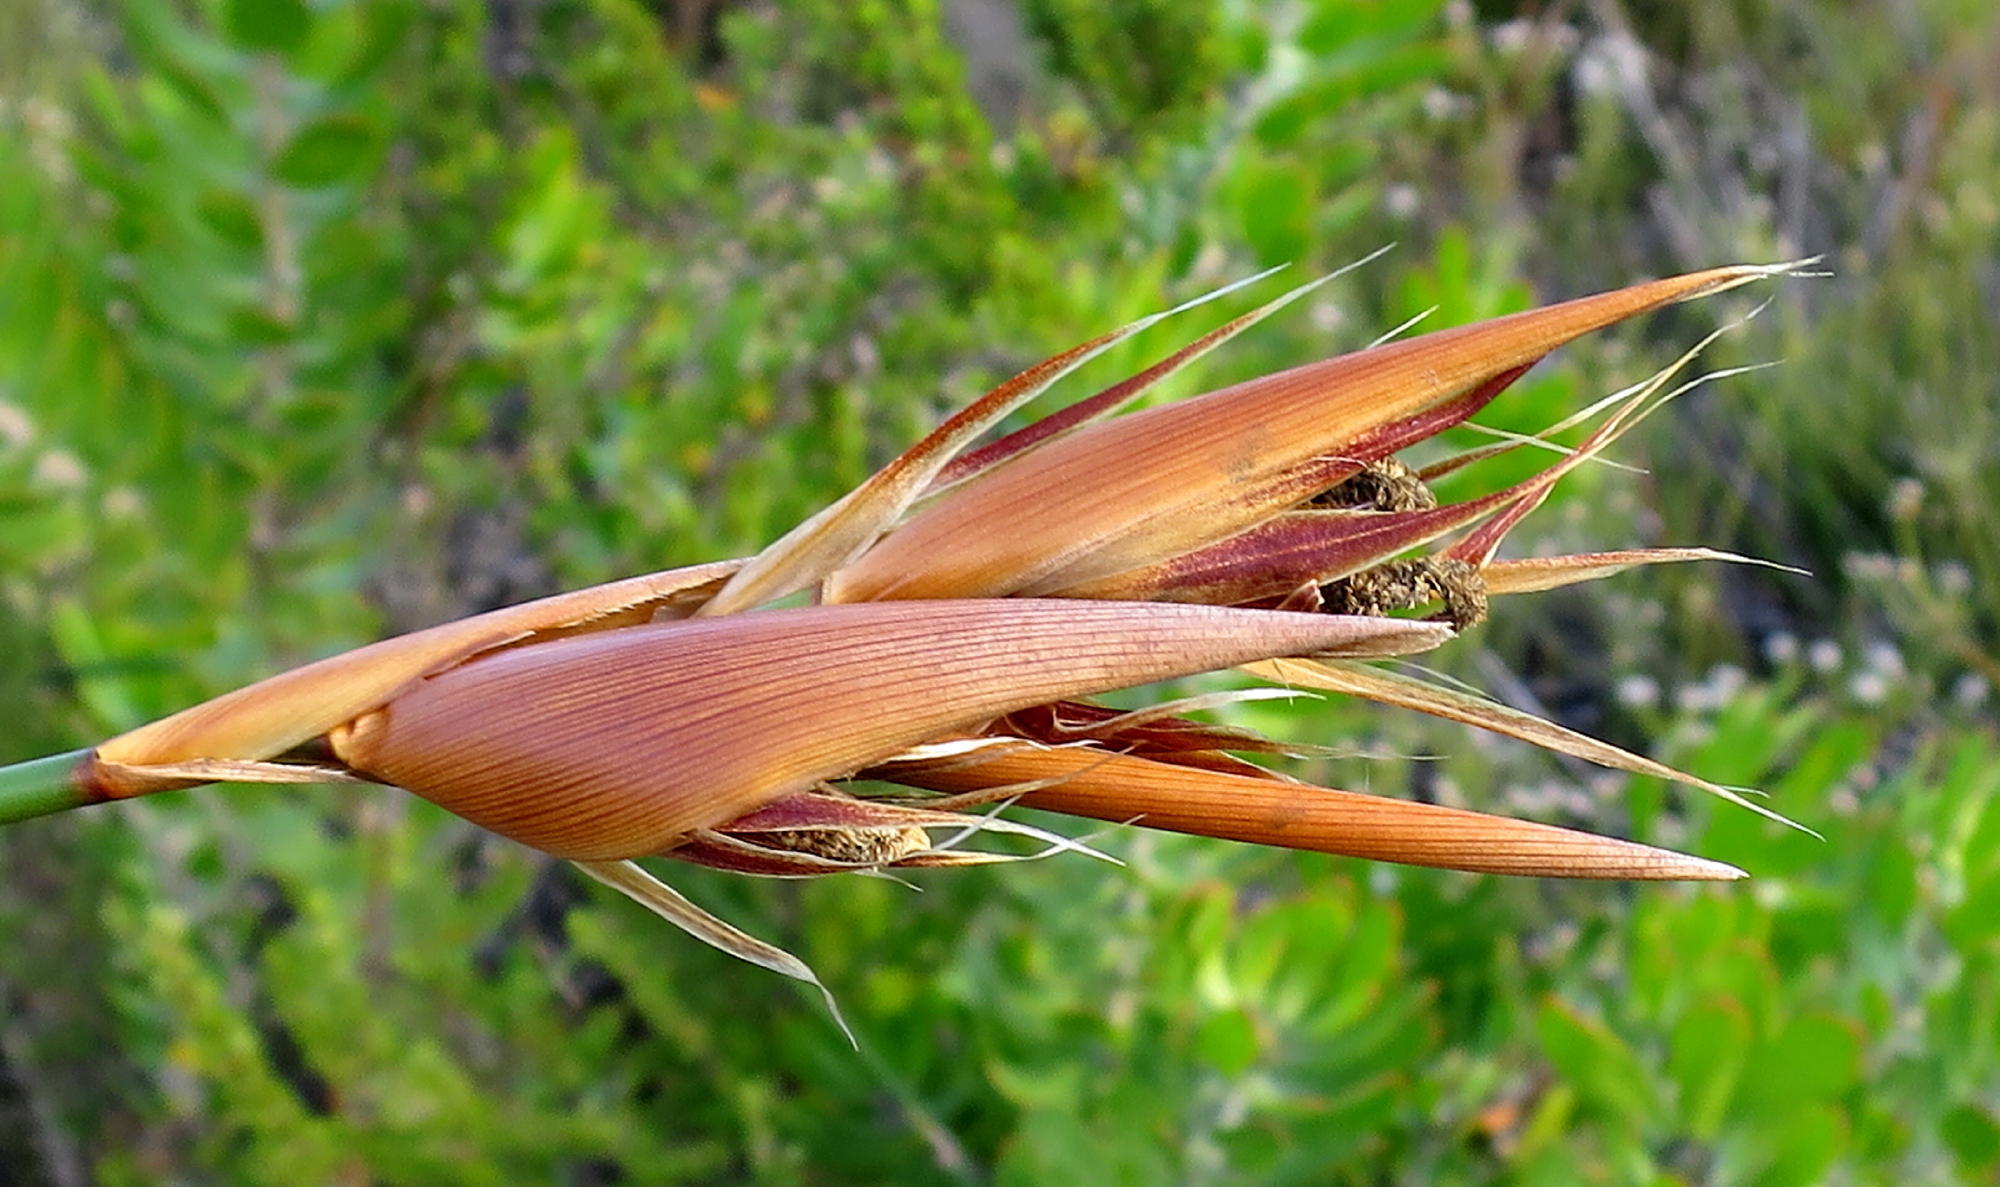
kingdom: Plantae
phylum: Tracheophyta
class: Liliopsida
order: Poales
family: Restionaceae
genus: Ceratocaryum
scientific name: Ceratocaryum argenteum
